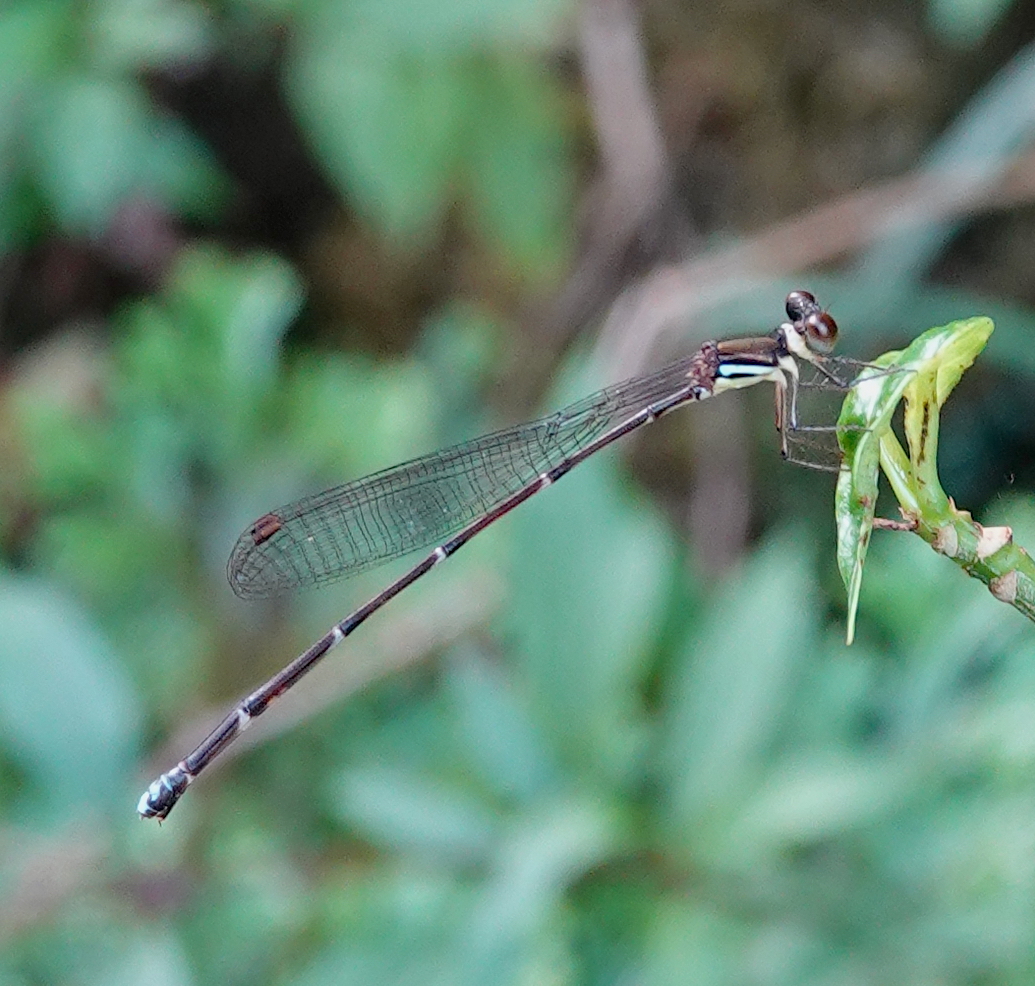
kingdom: Animalia
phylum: Arthropoda
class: Insecta
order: Odonata
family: Platystictidae
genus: Ceylonosticta
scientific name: Ceylonosticta adami
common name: Adam’s shadowdamsel
